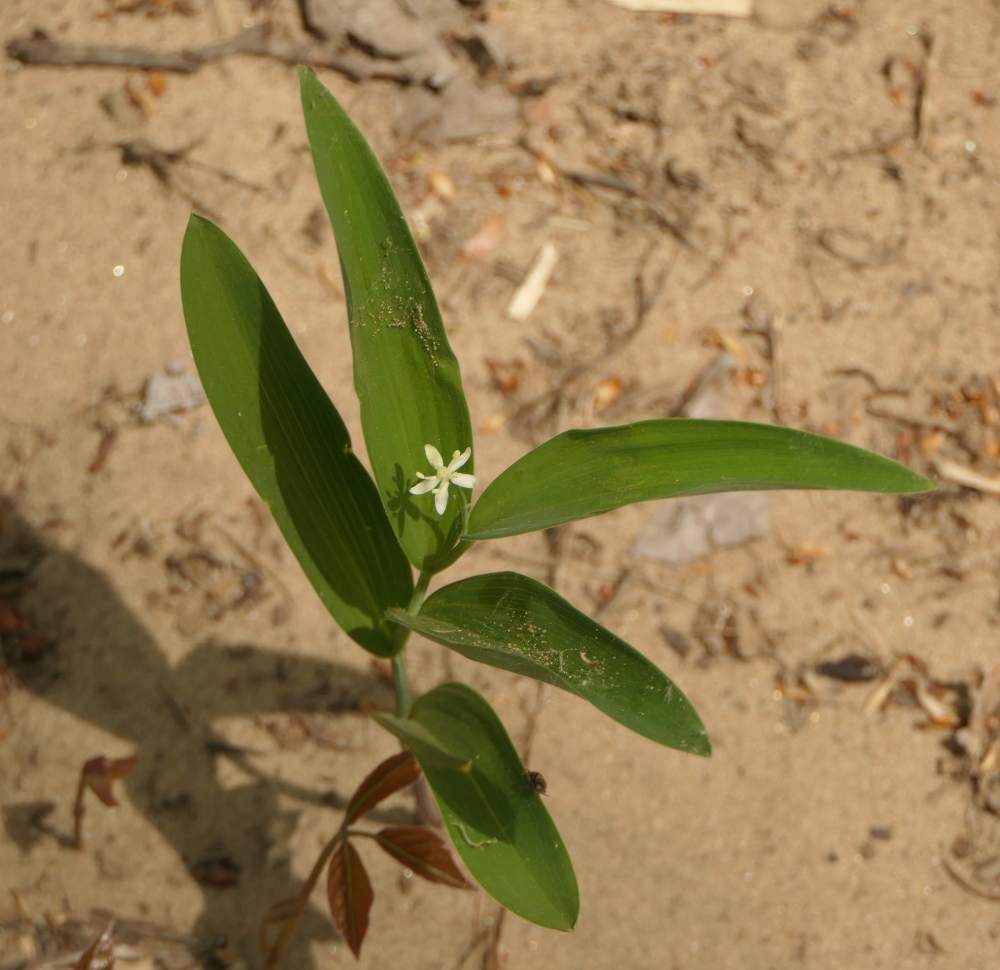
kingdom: Plantae
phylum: Tracheophyta
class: Liliopsida
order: Asparagales
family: Asparagaceae
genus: Maianthemum
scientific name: Maianthemum stellatum
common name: Little false solomon's seal
